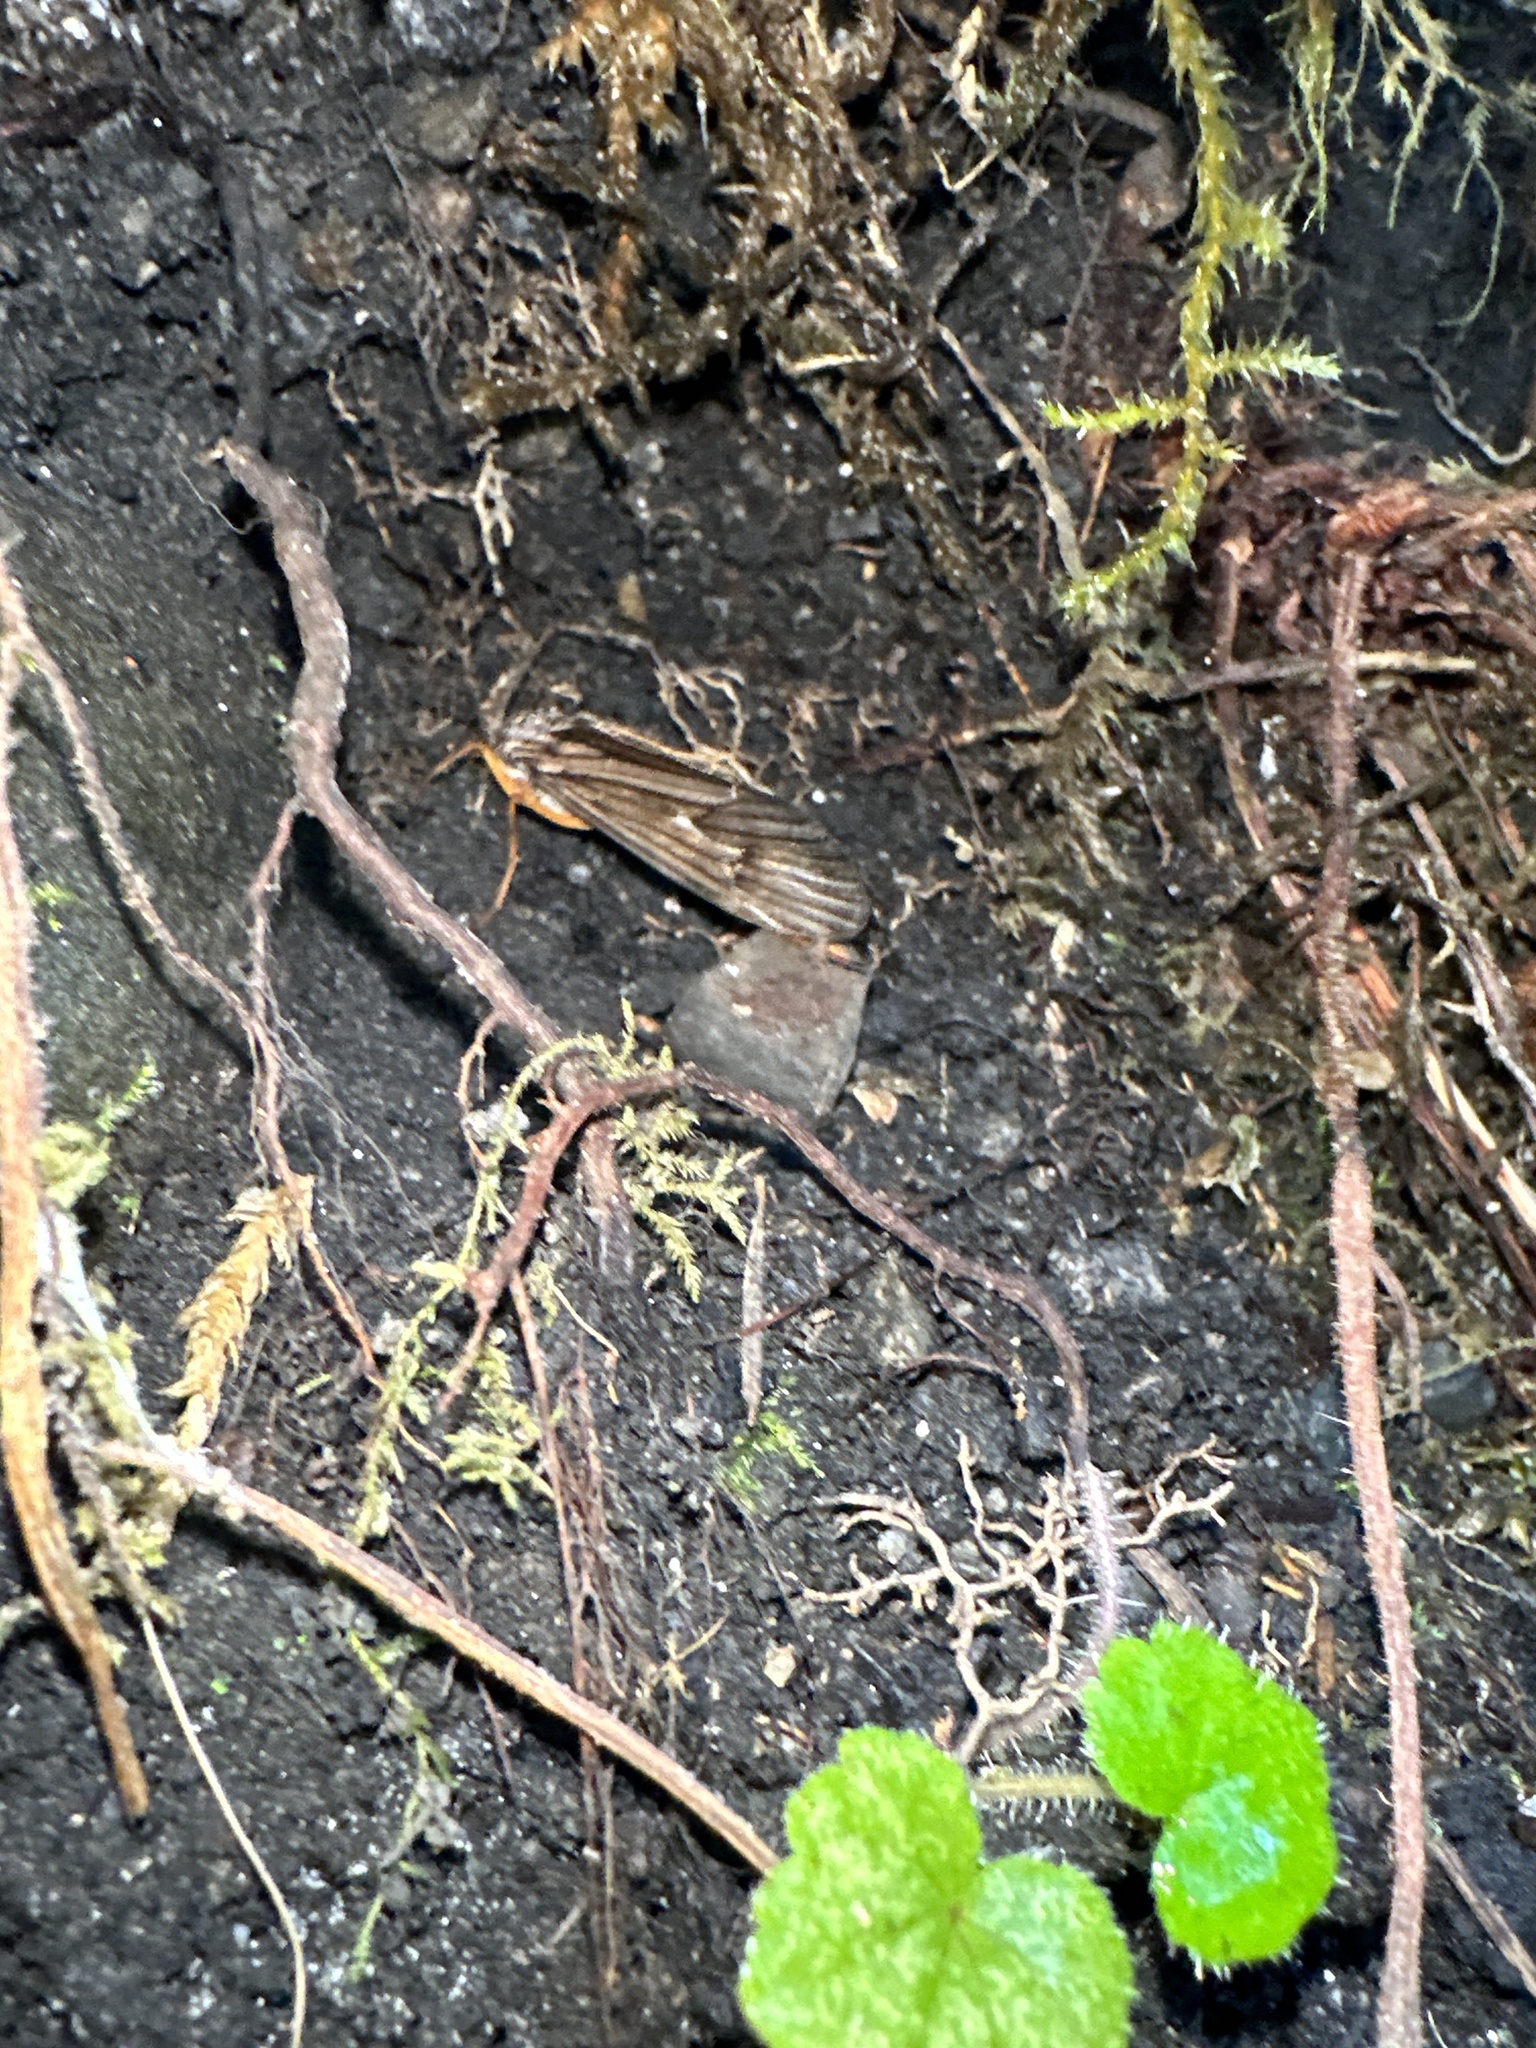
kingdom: Animalia
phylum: Arthropoda
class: Insecta
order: Trichoptera
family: Limnephilidae
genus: Dicosmoecus
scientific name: Dicosmoecus gilvipes
